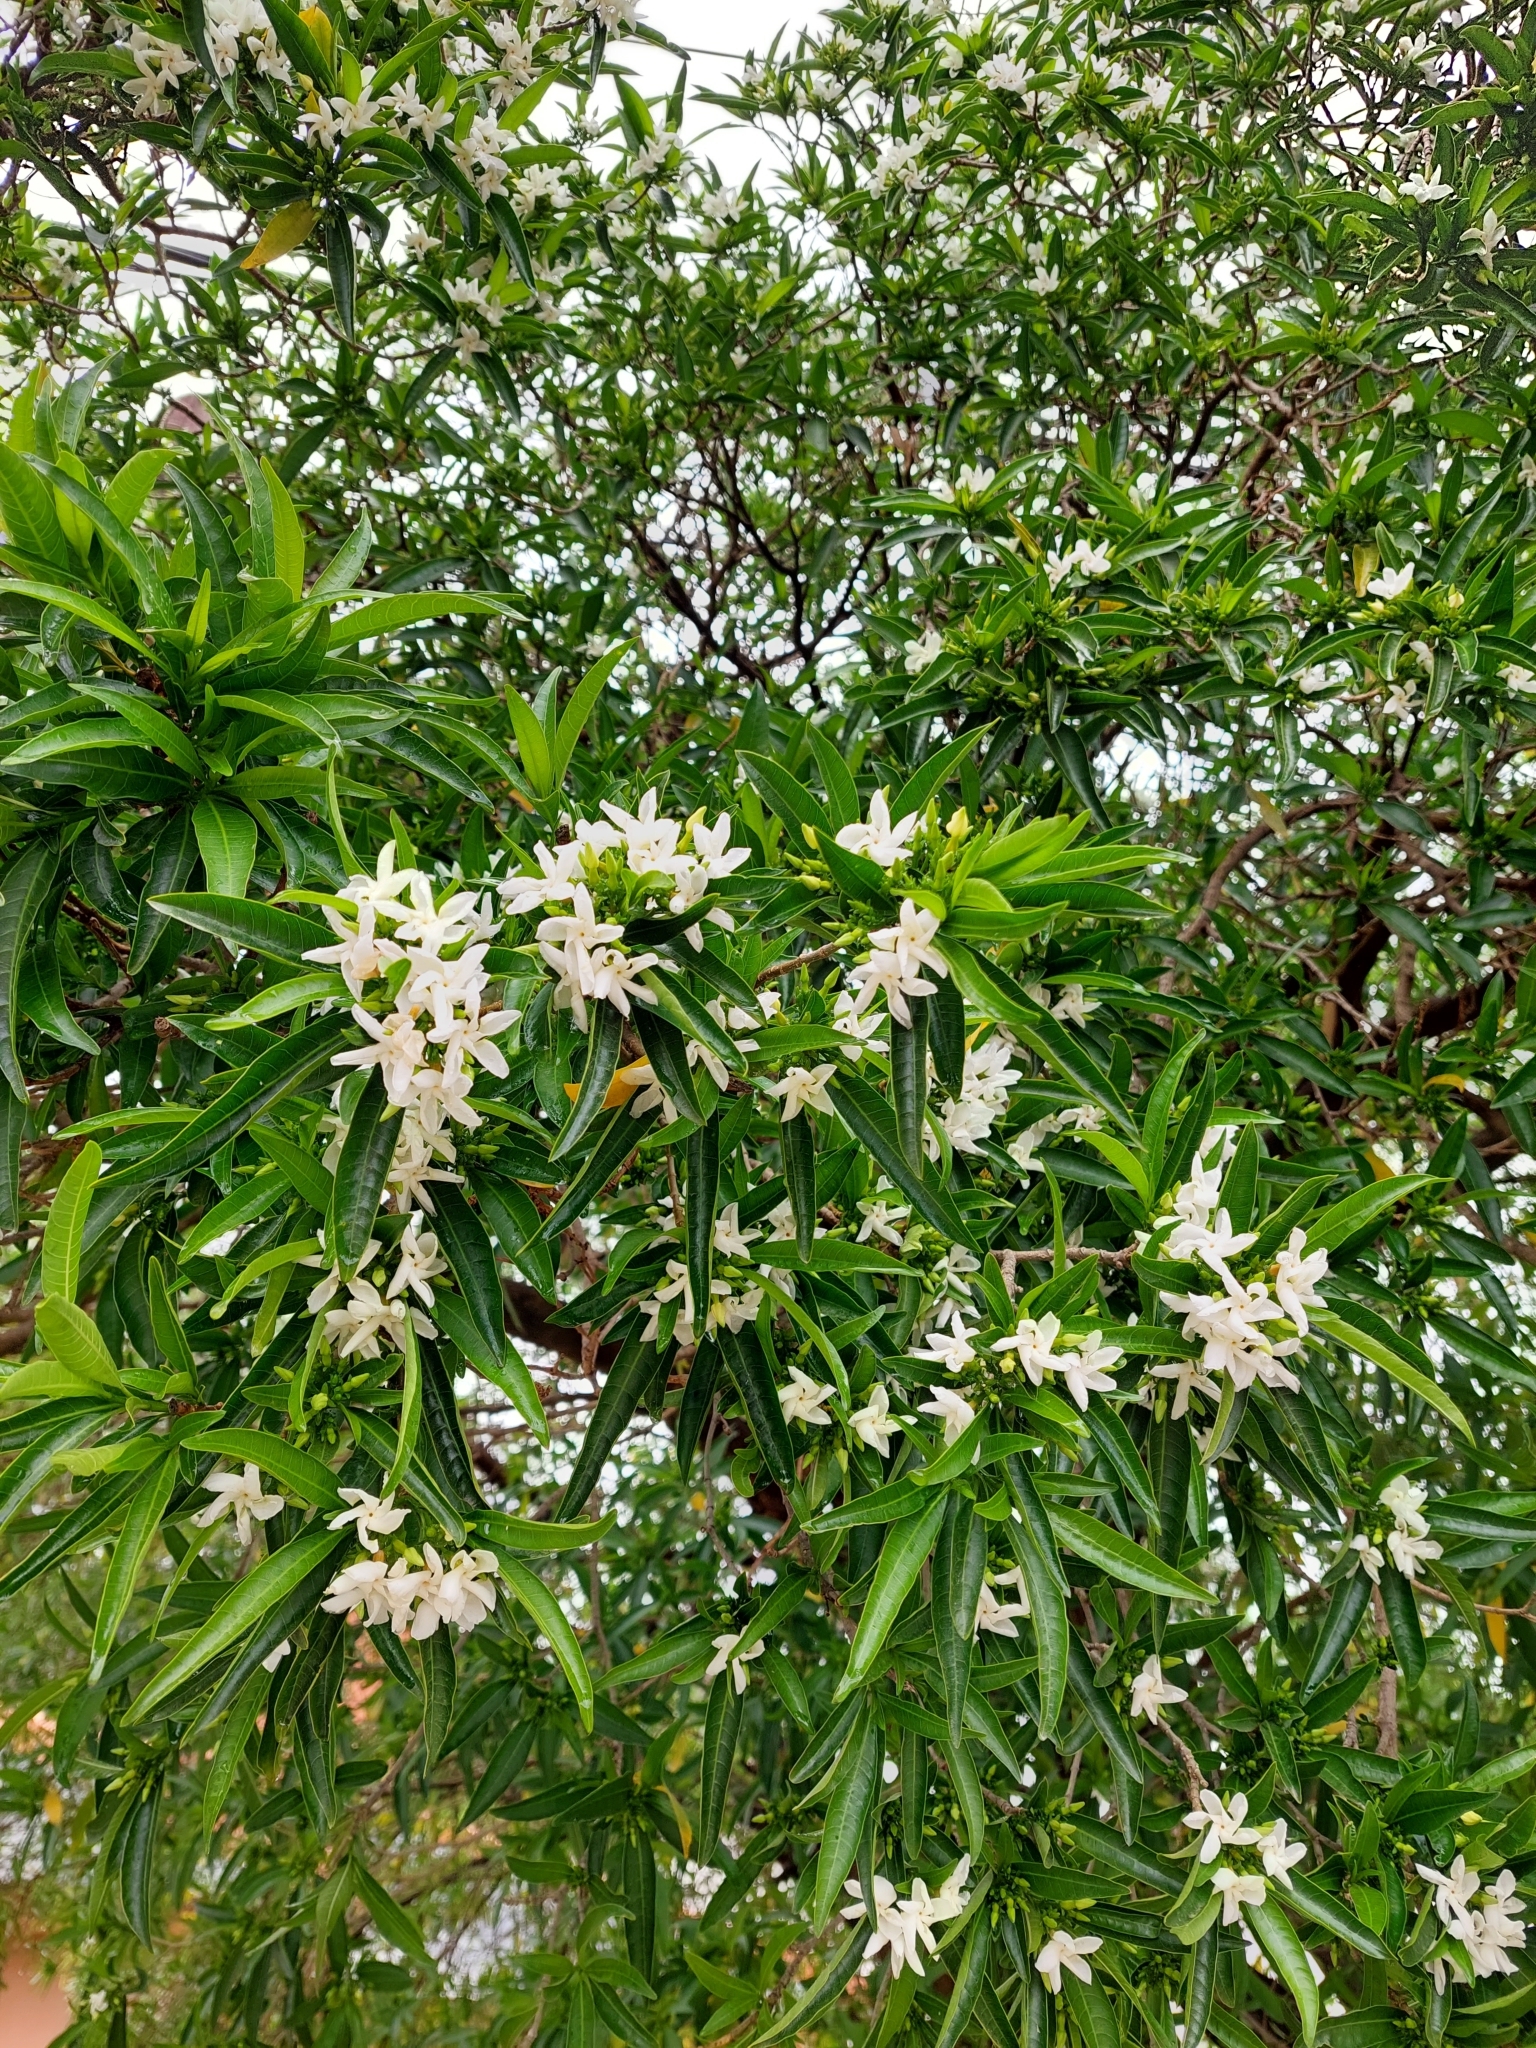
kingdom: Plantae
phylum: Tracheophyta
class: Magnoliopsida
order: Gentianales
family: Apocynaceae
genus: Tabernaemontana
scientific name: Tabernaemontana catharinensis
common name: Pinwheel-flower
